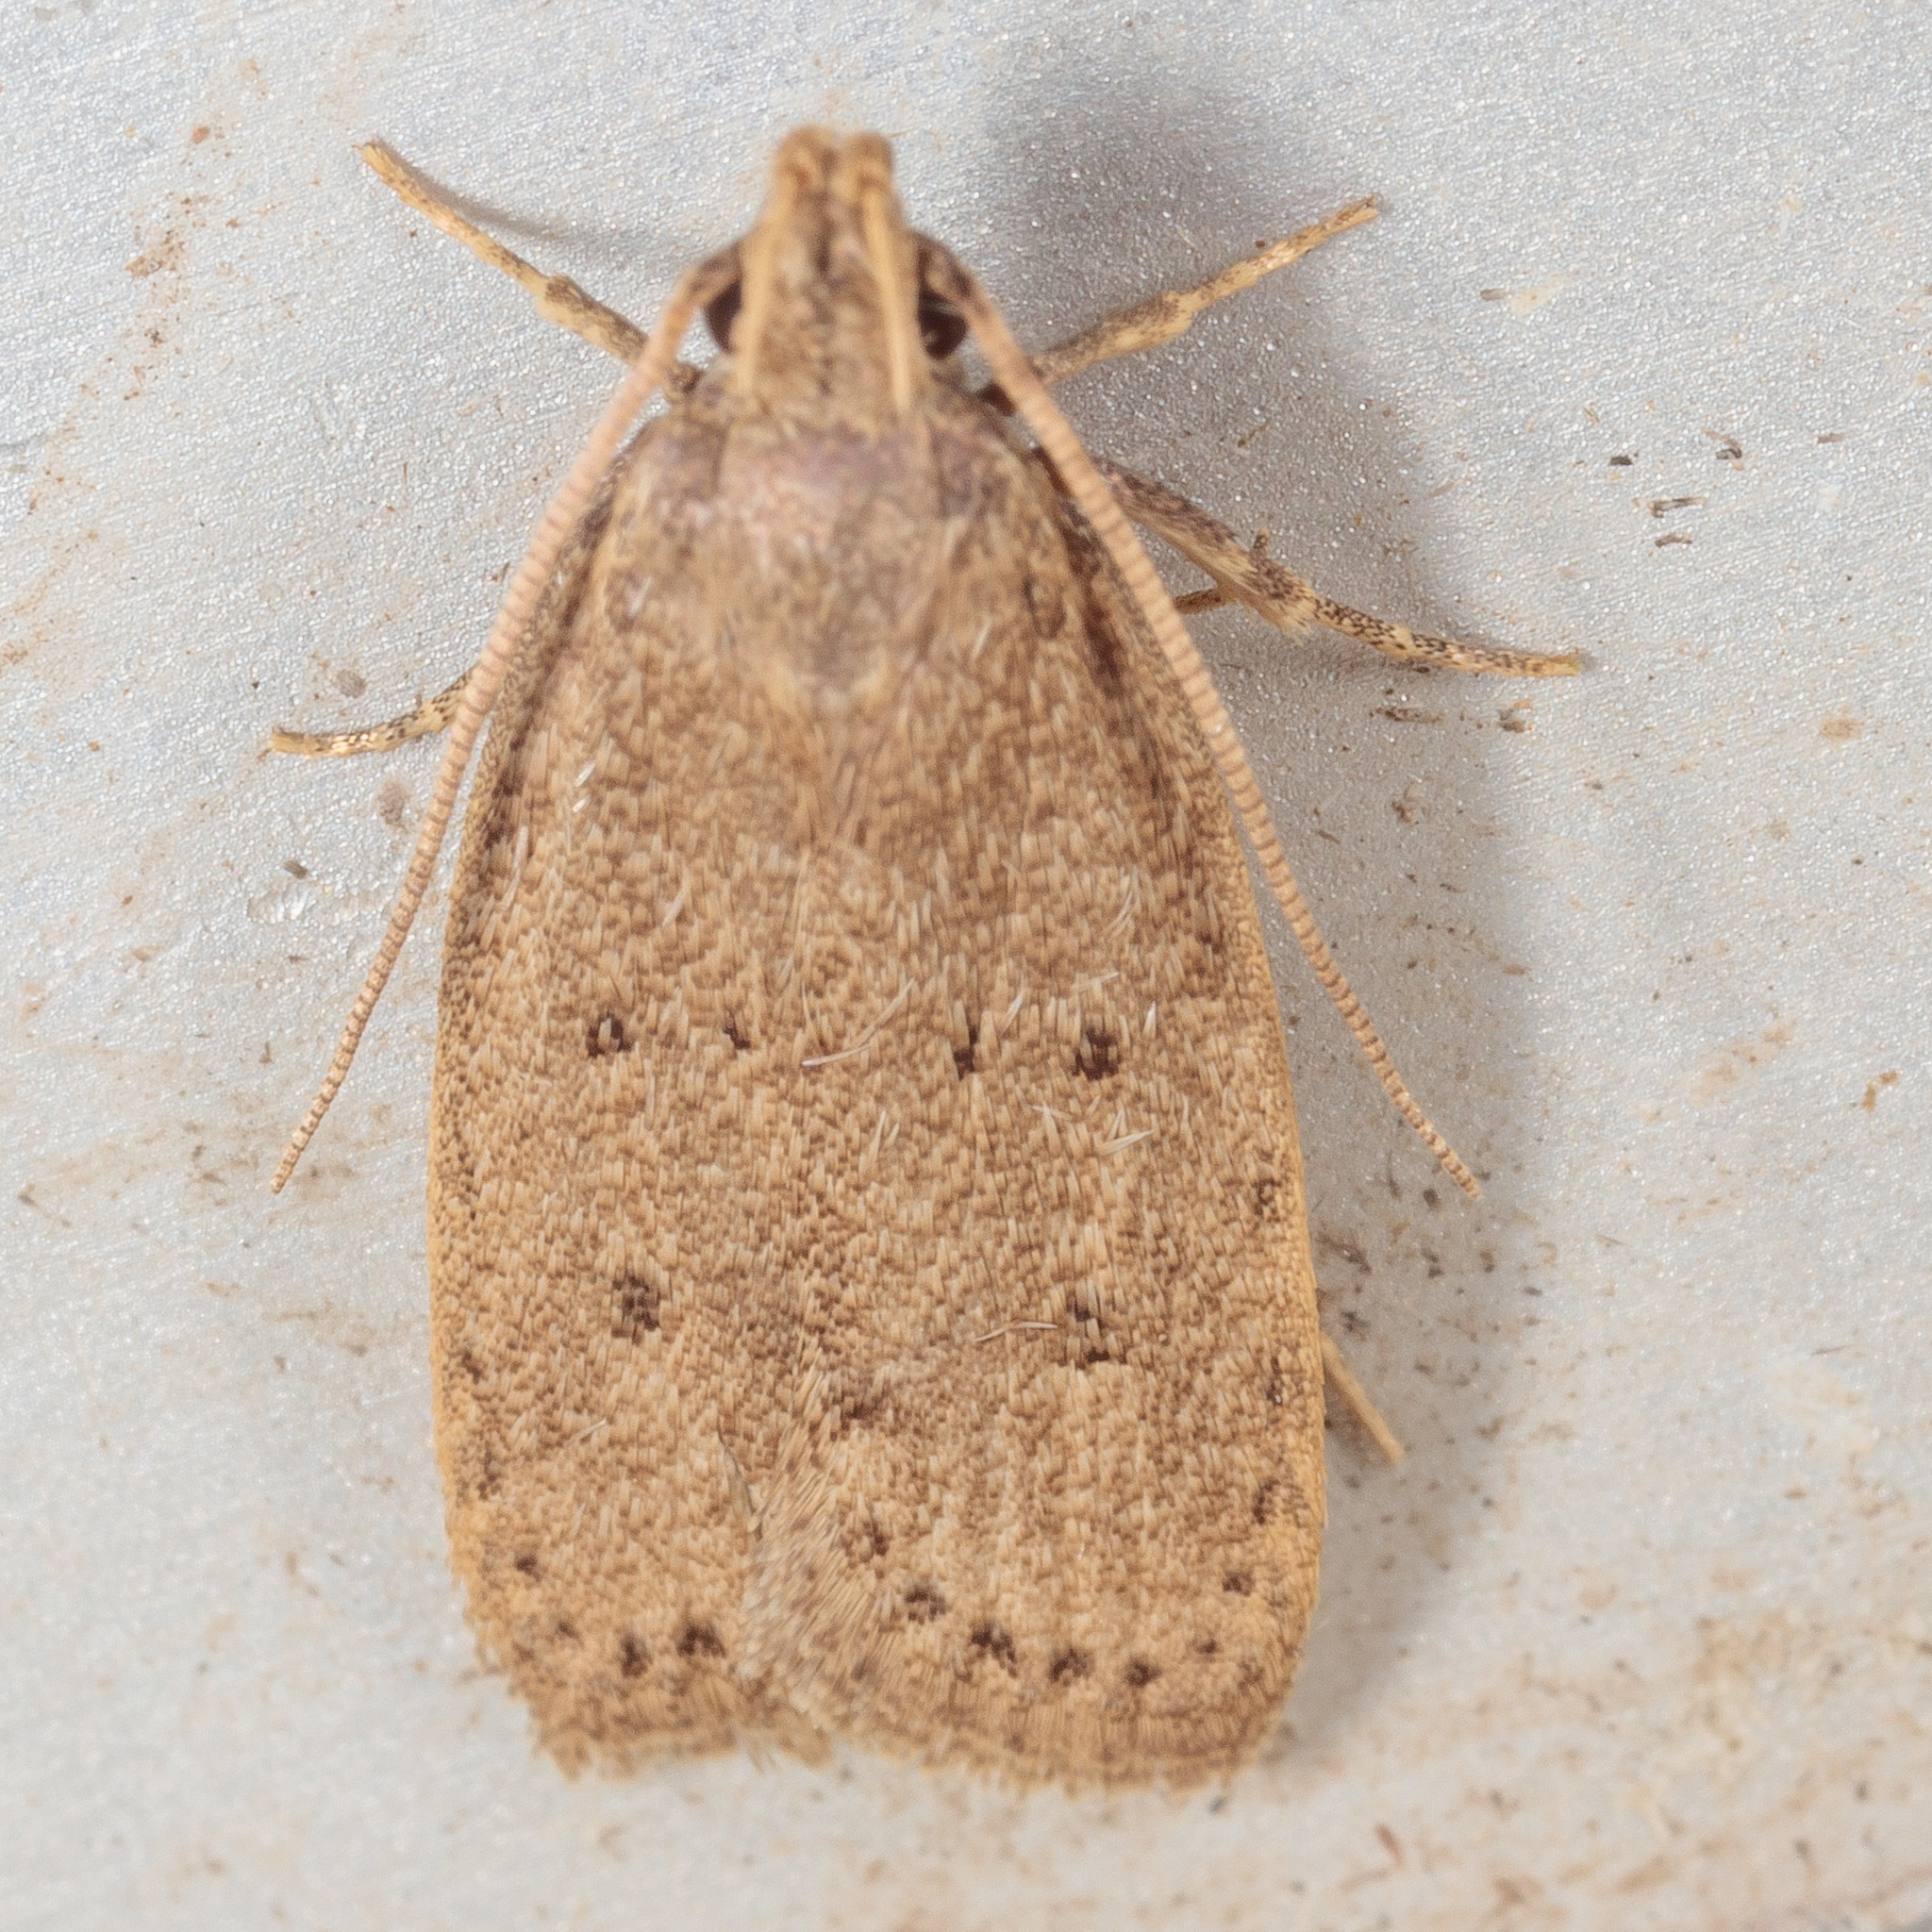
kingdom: Animalia
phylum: Arthropoda
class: Insecta
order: Lepidoptera
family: Autostichidae
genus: Autosticha
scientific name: Autosticha kyotensis
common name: Kyoto moth
